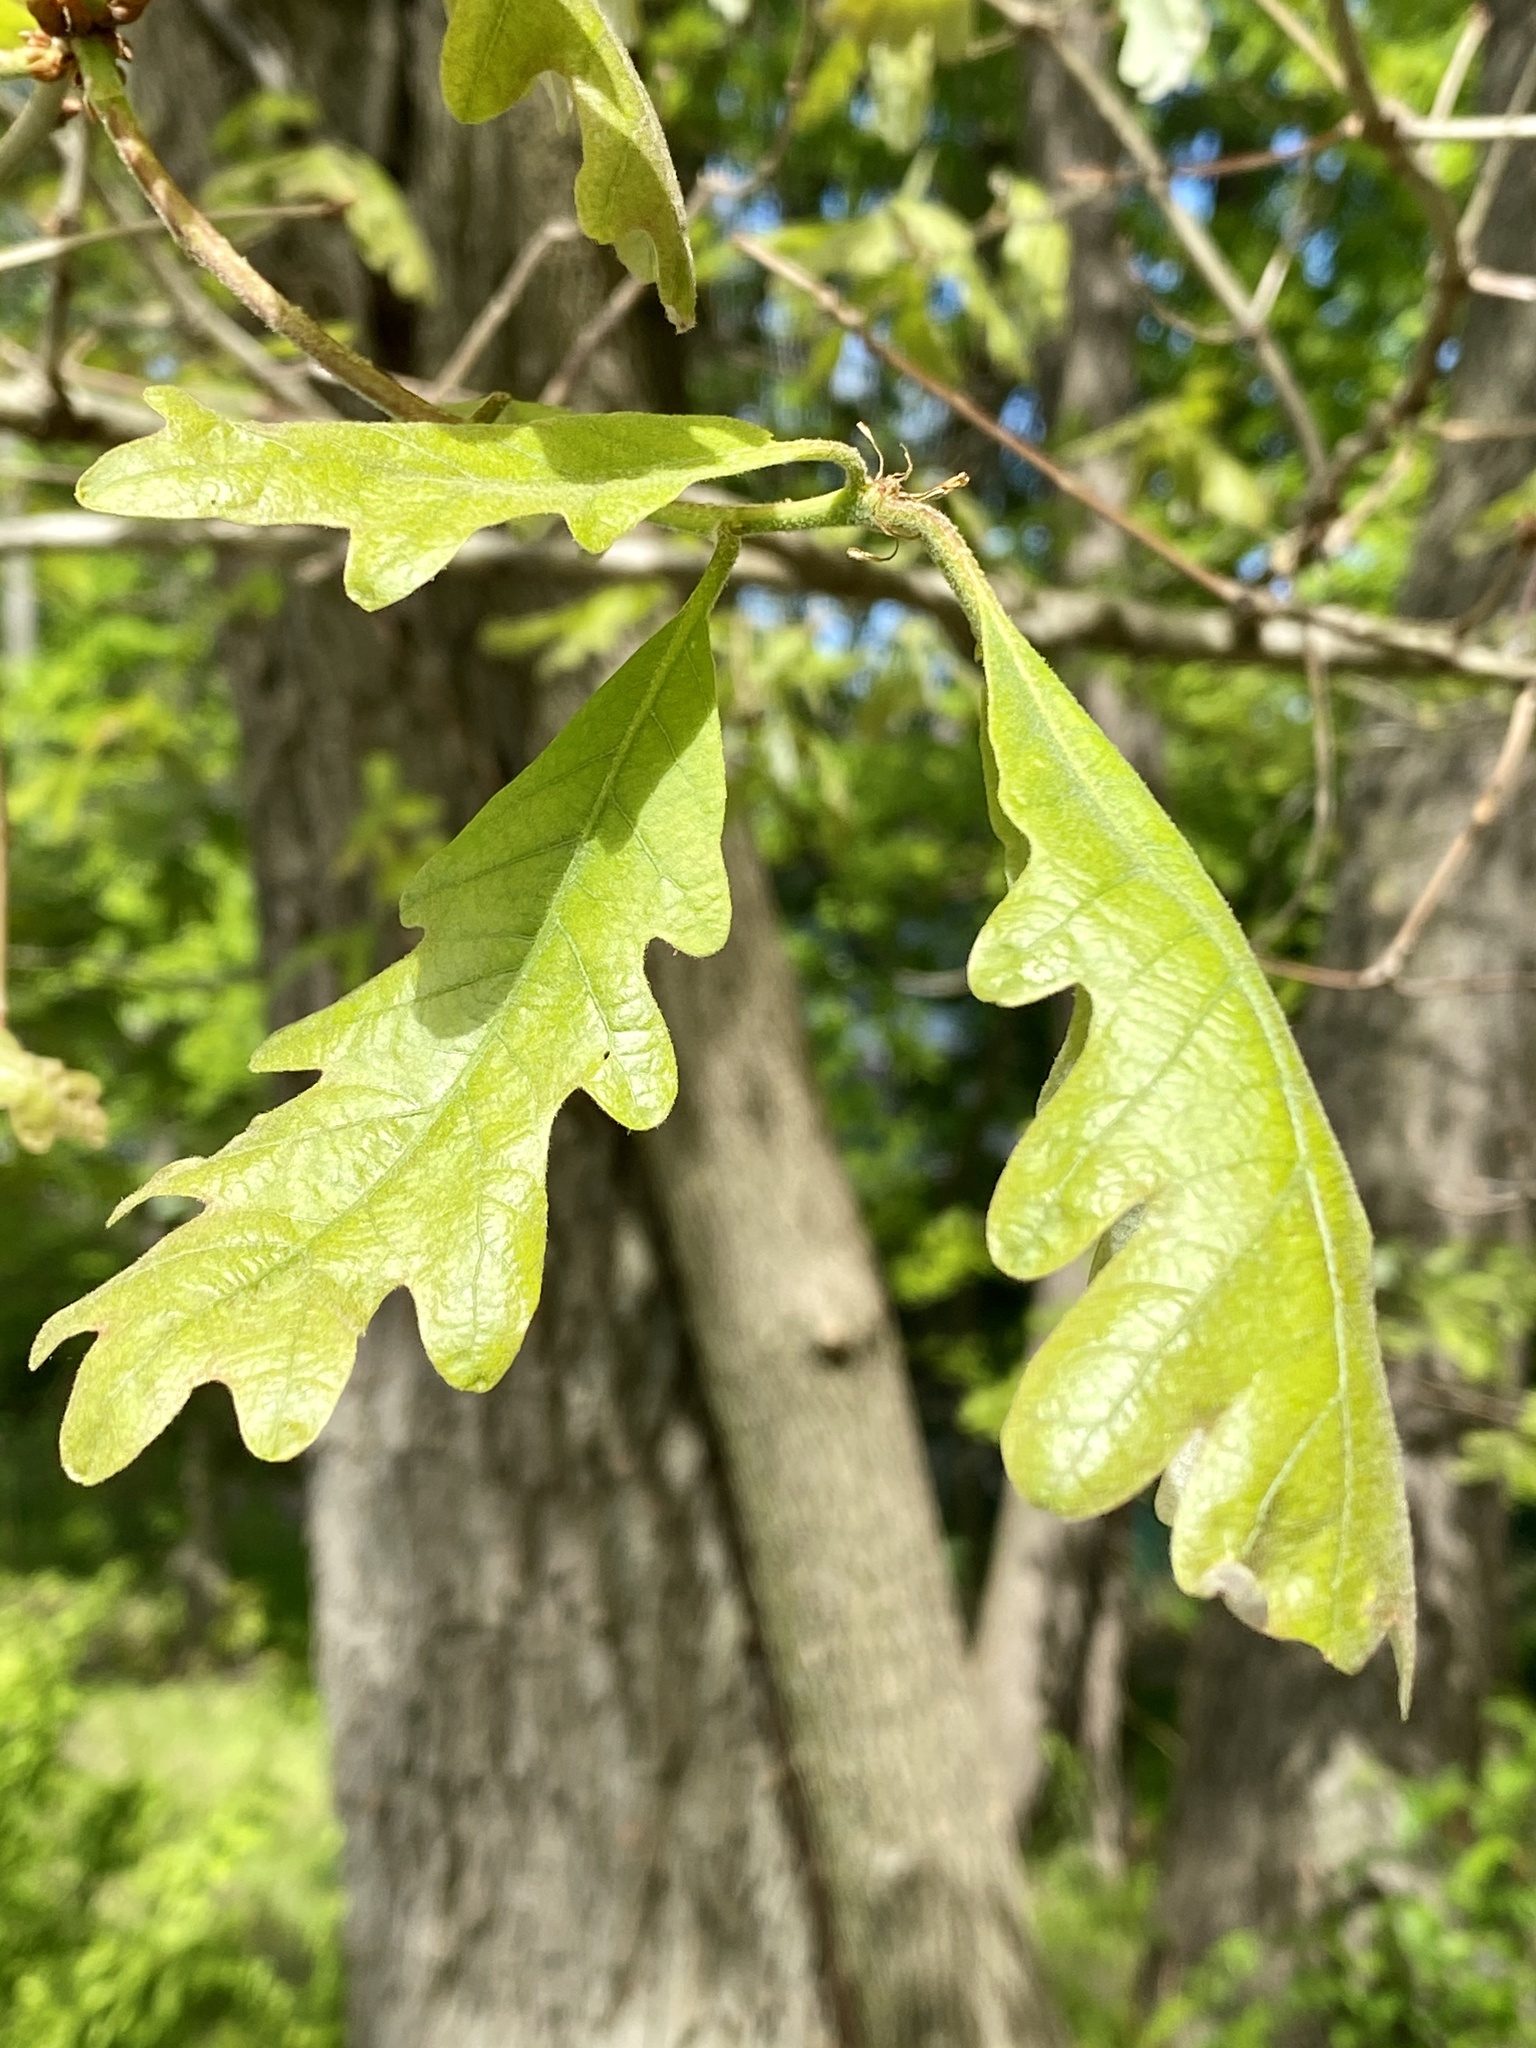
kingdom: Plantae
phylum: Tracheophyta
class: Magnoliopsida
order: Fagales
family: Fagaceae
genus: Quercus
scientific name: Quercus alba
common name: White oak
